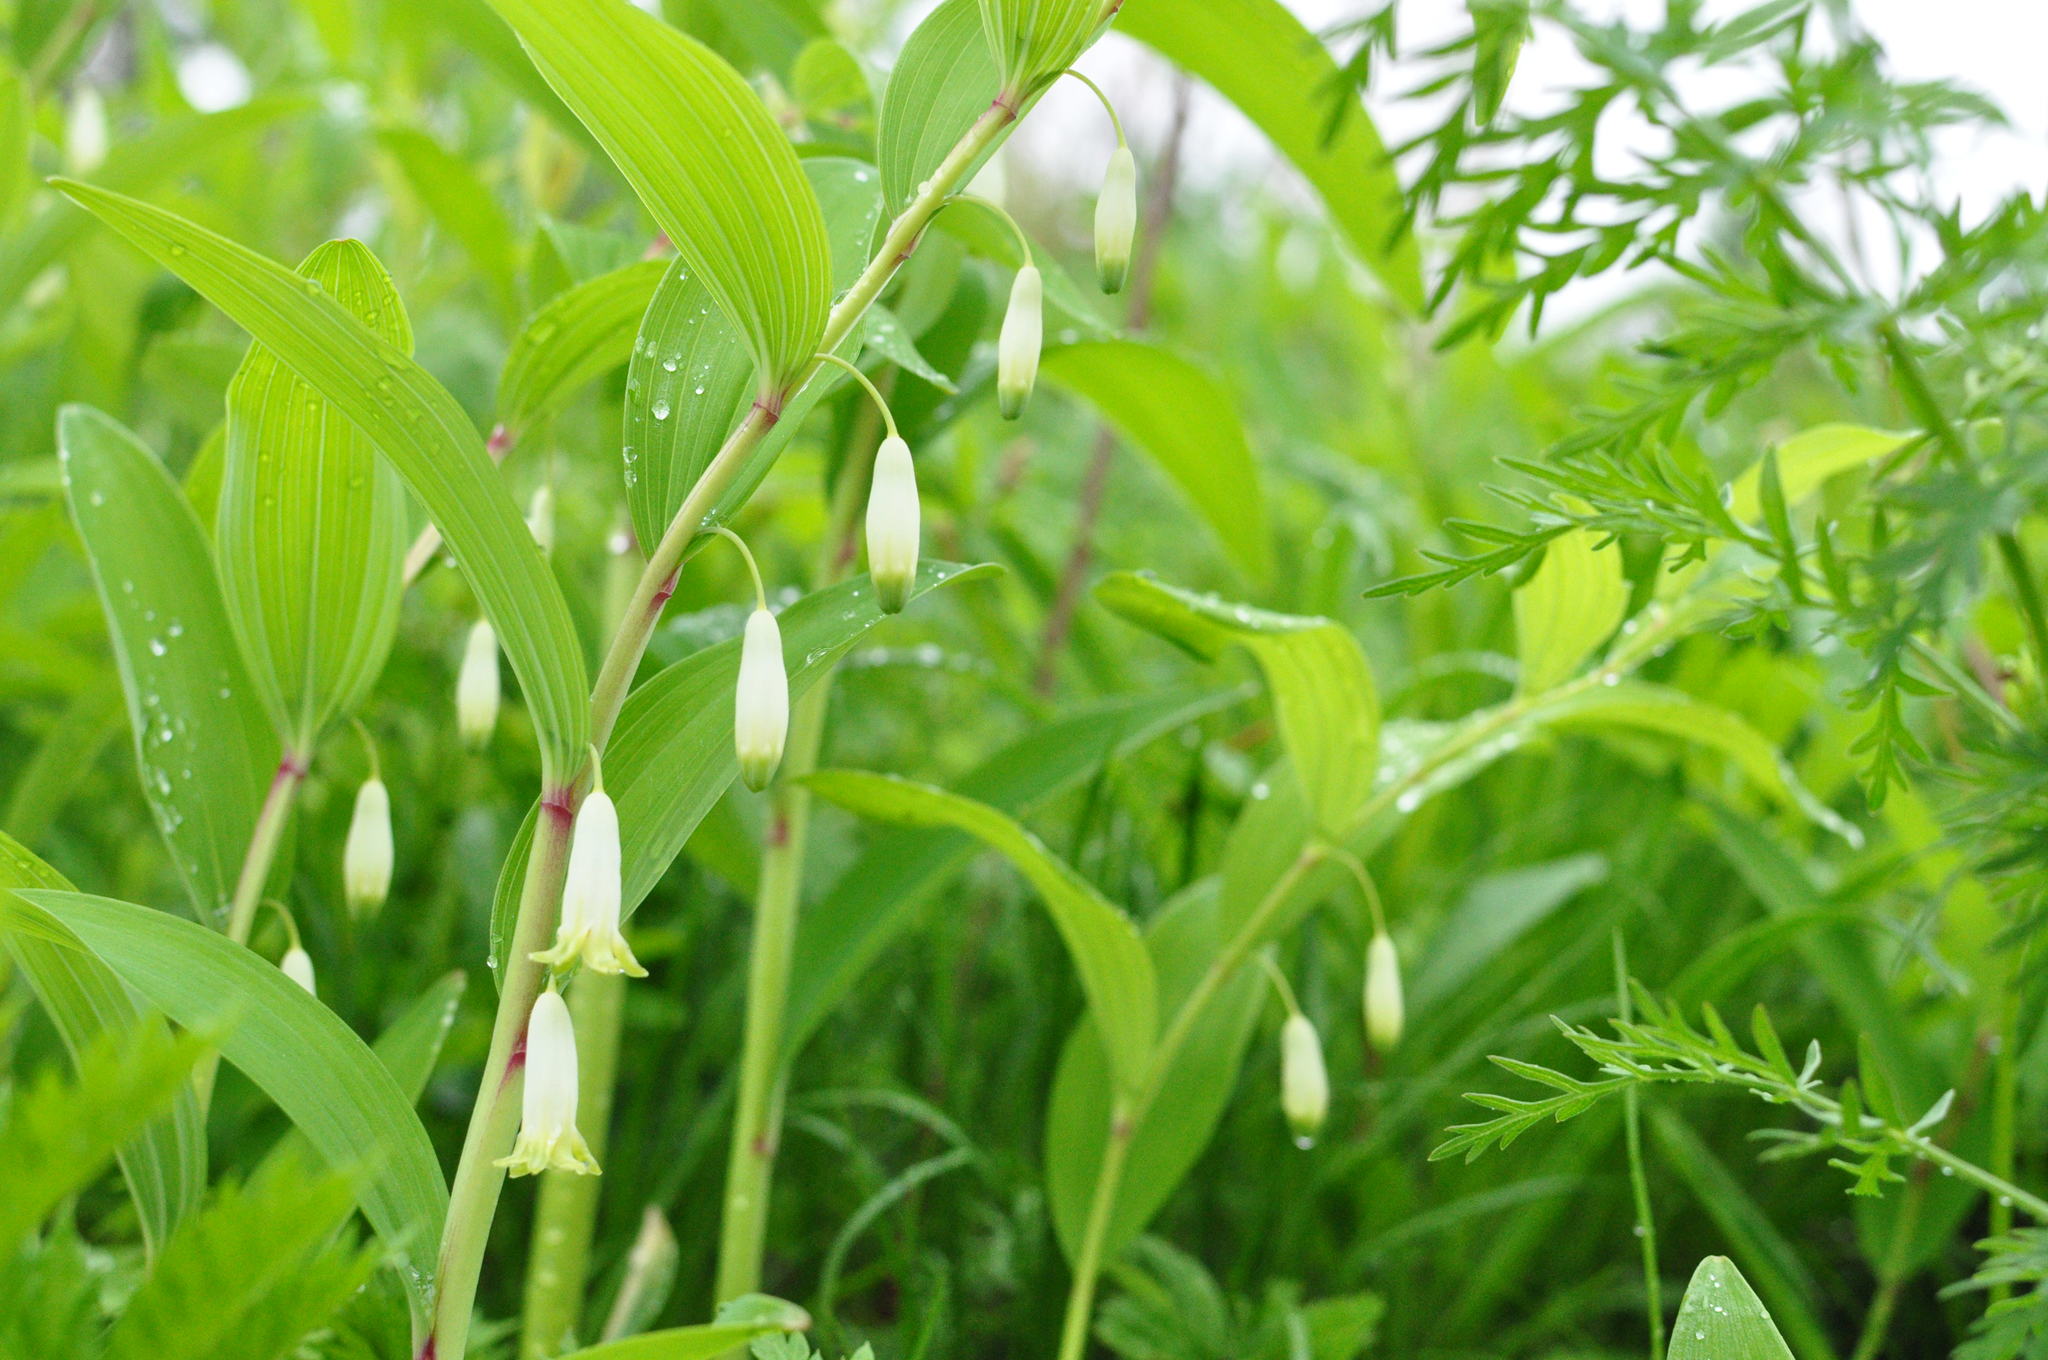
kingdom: Plantae
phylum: Tracheophyta
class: Liliopsida
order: Asparagales
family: Asparagaceae
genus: Polygonatum
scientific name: Polygonatum odoratum
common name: Angular solomon's-seal
